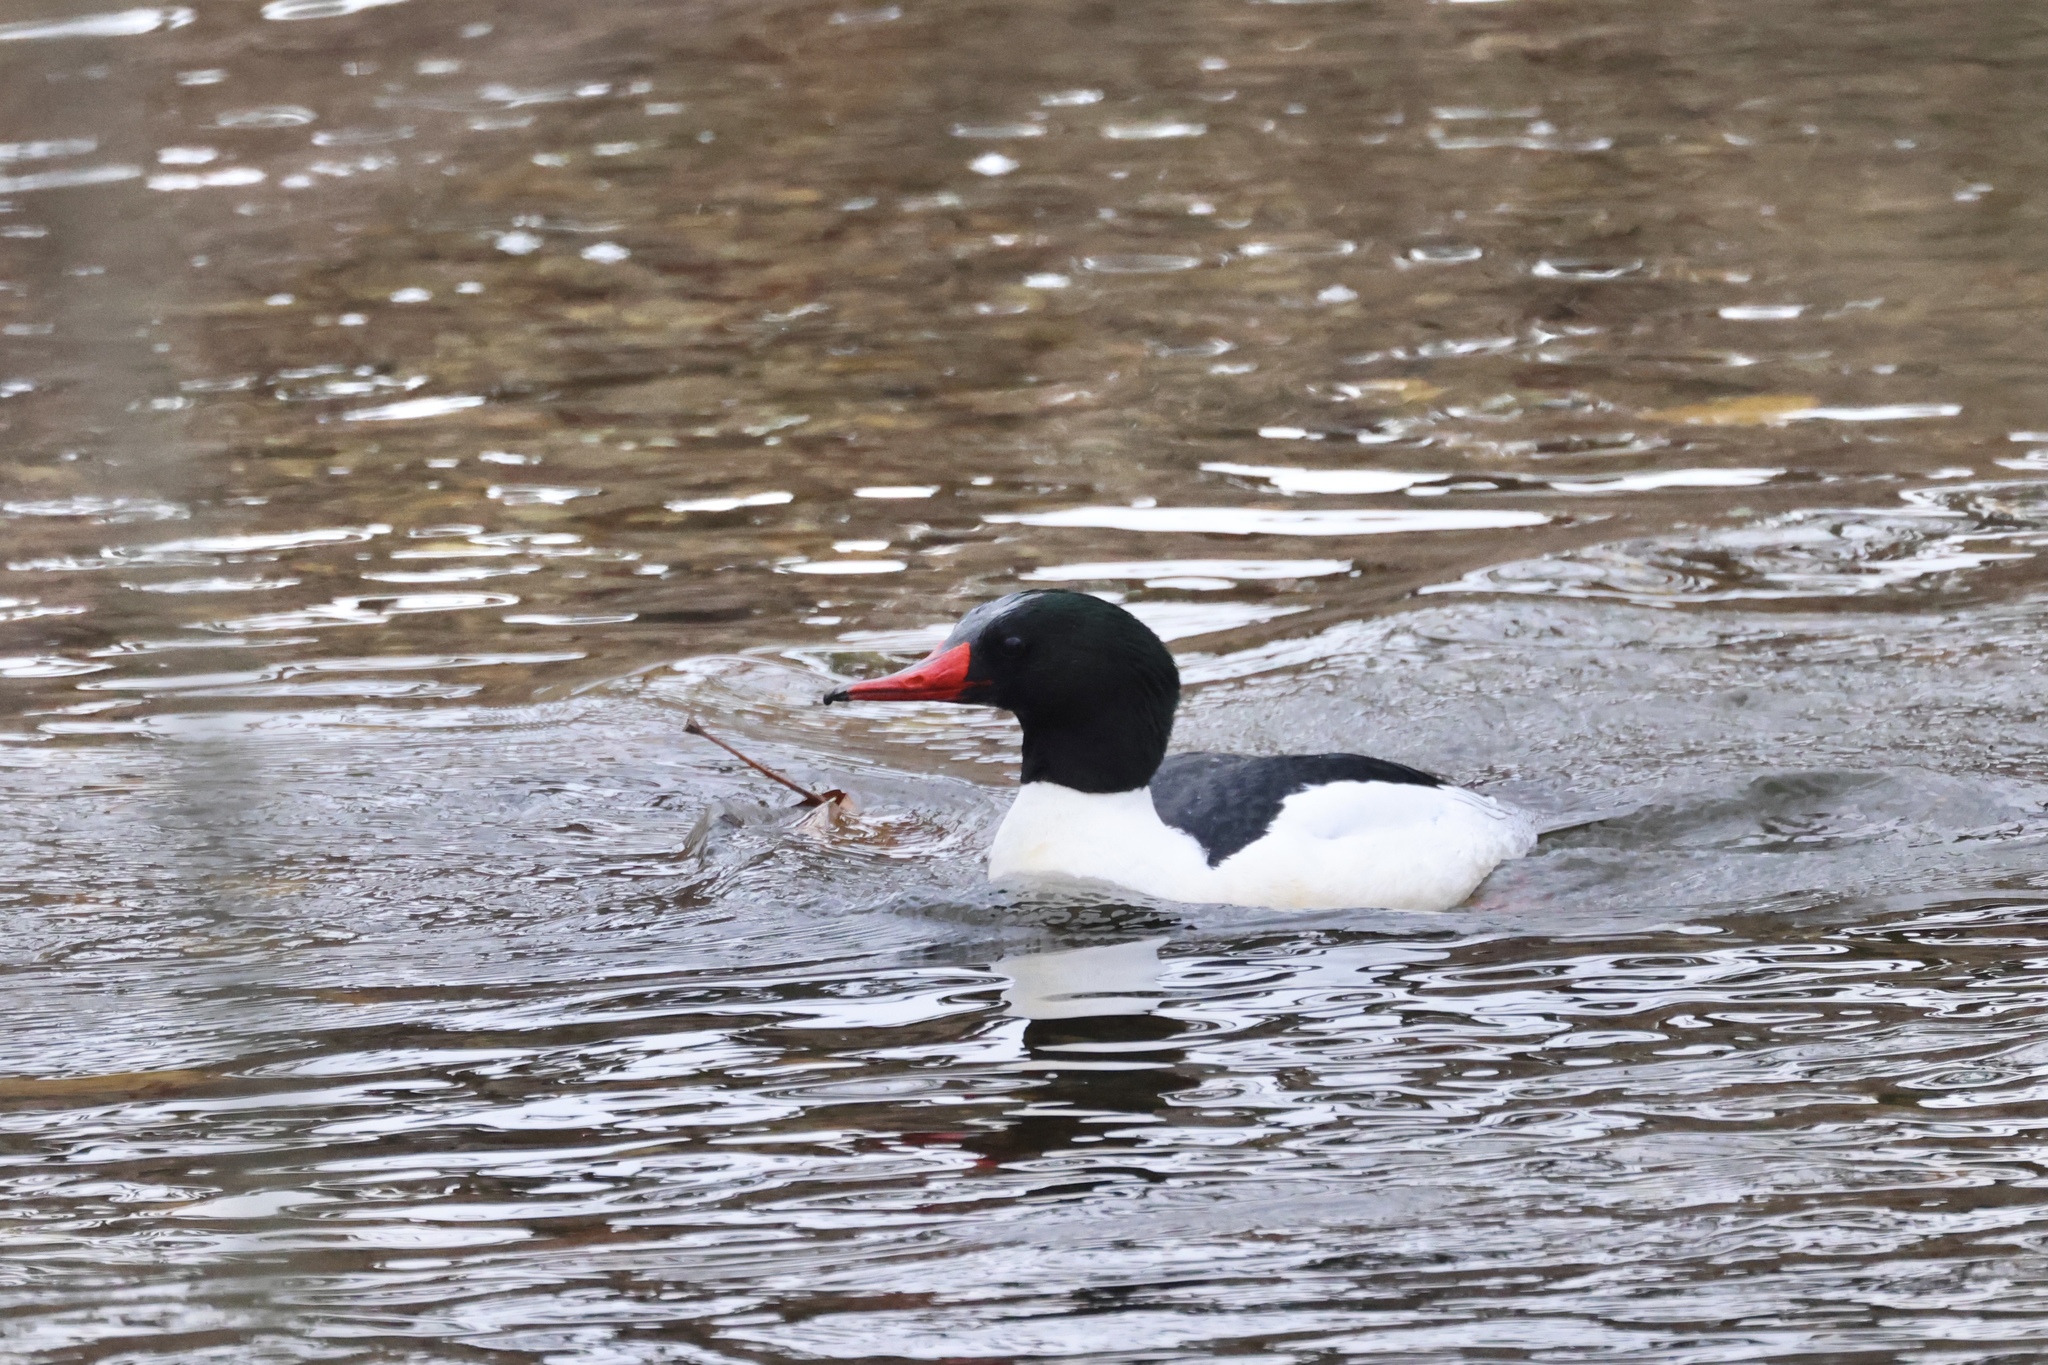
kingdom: Animalia
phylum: Chordata
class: Aves
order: Anseriformes
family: Anatidae
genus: Mergus
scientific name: Mergus merganser
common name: Common merganser
